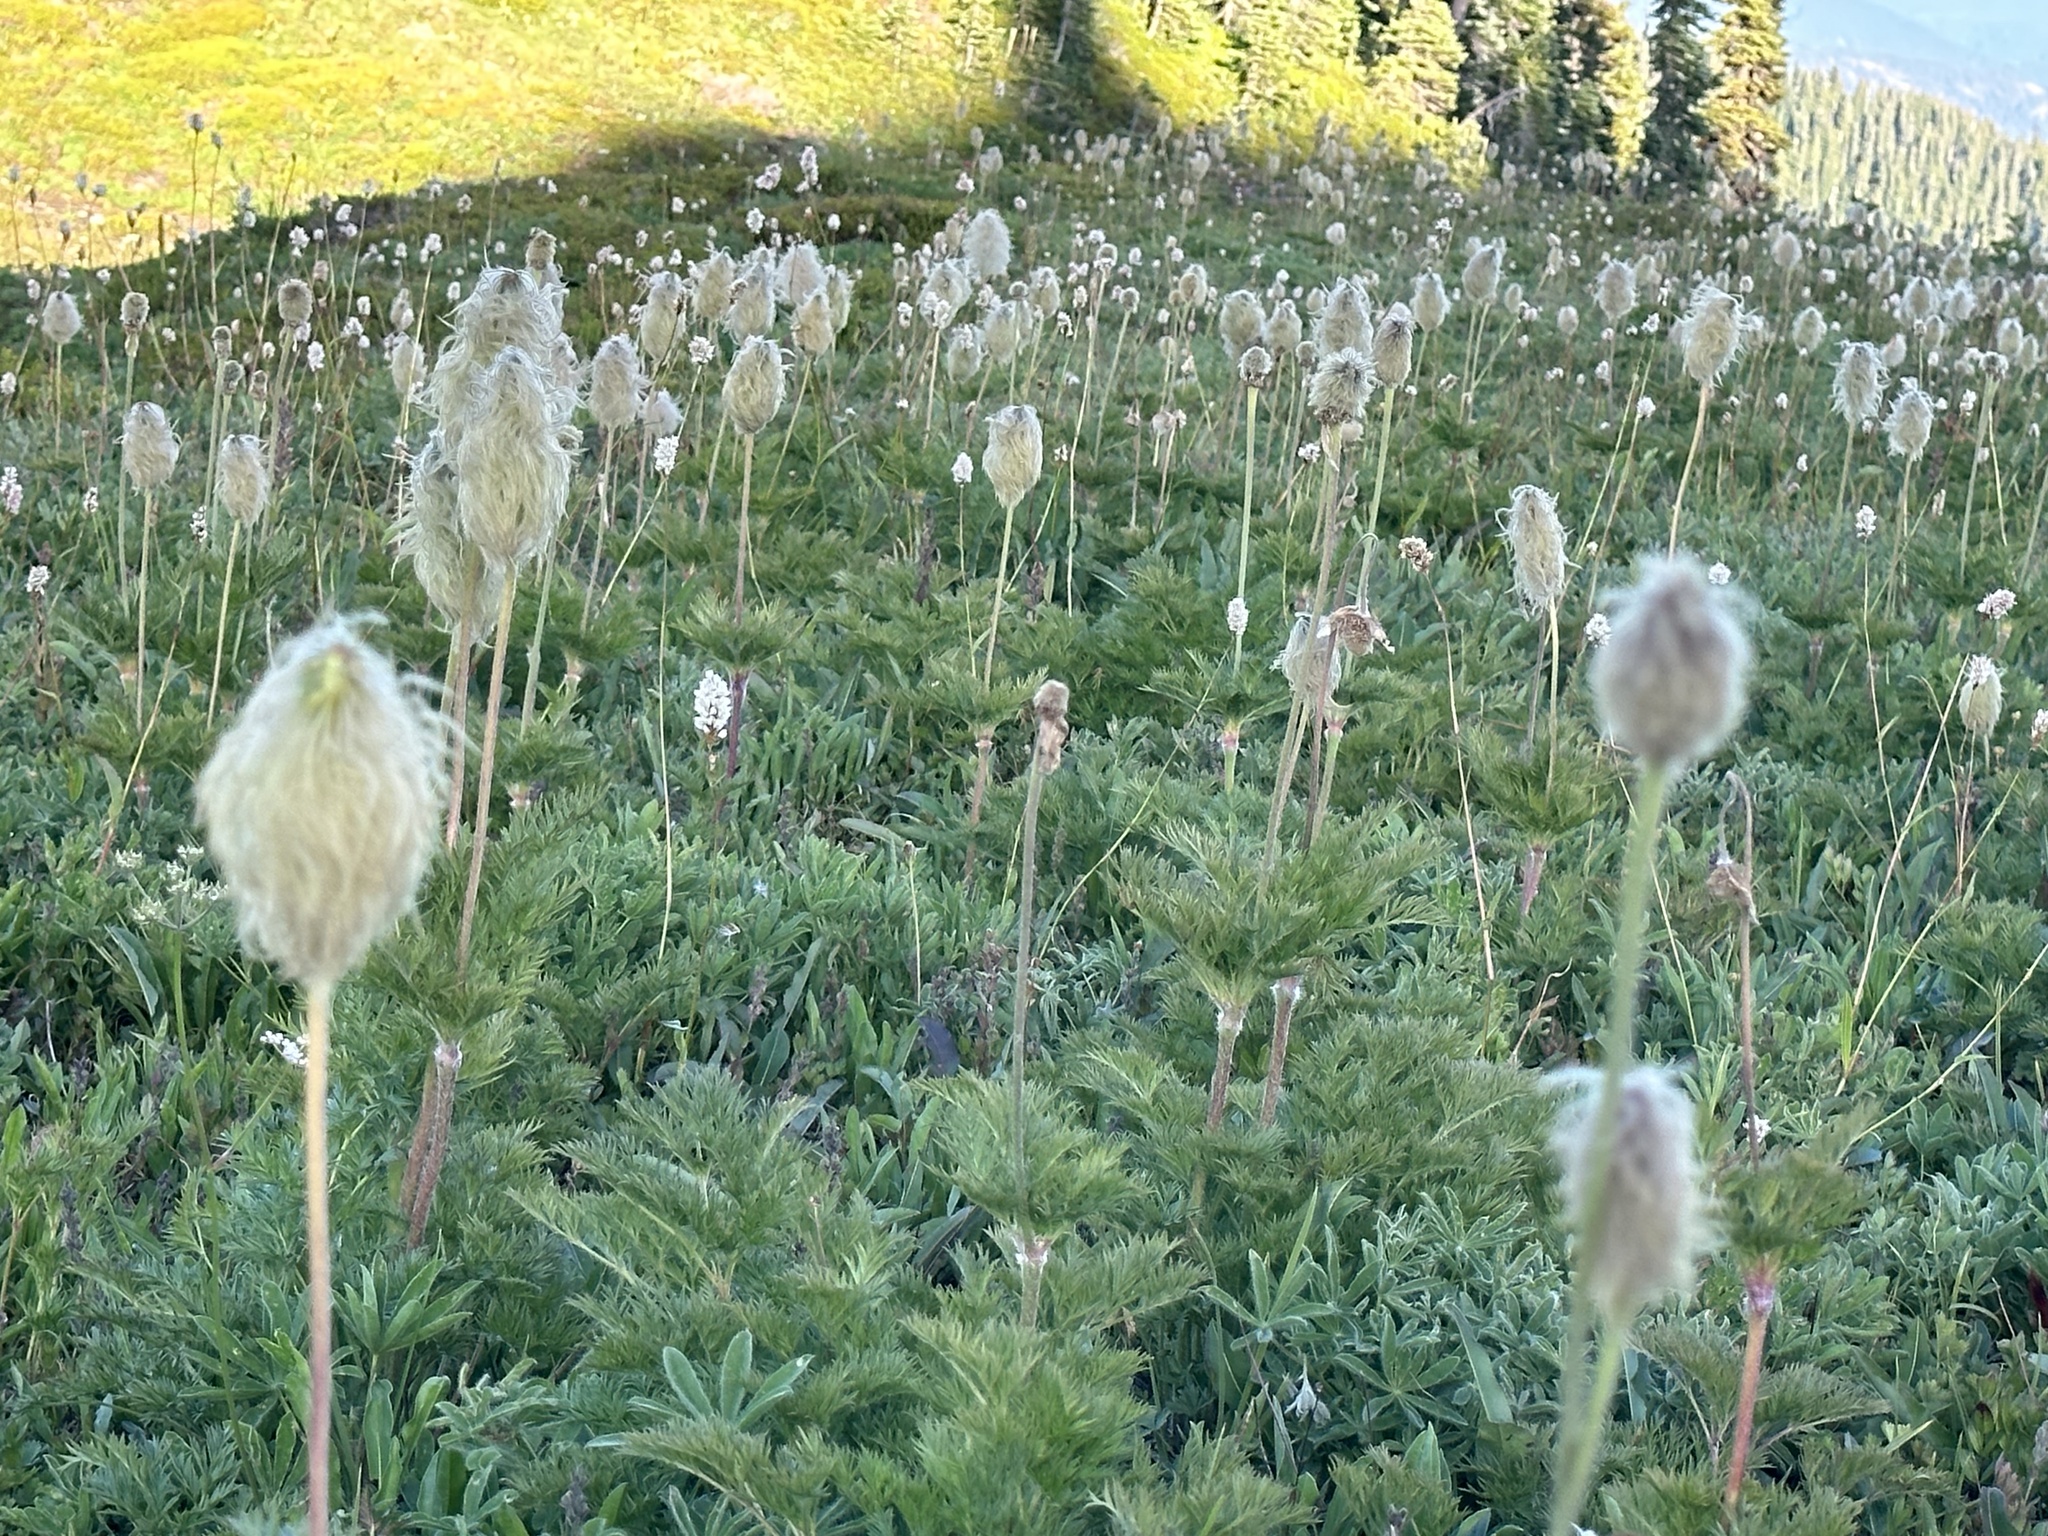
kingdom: Plantae
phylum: Tracheophyta
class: Magnoliopsida
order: Ranunculales
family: Ranunculaceae
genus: Pulsatilla
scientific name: Pulsatilla occidentalis
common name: Mountain pasqueflower
